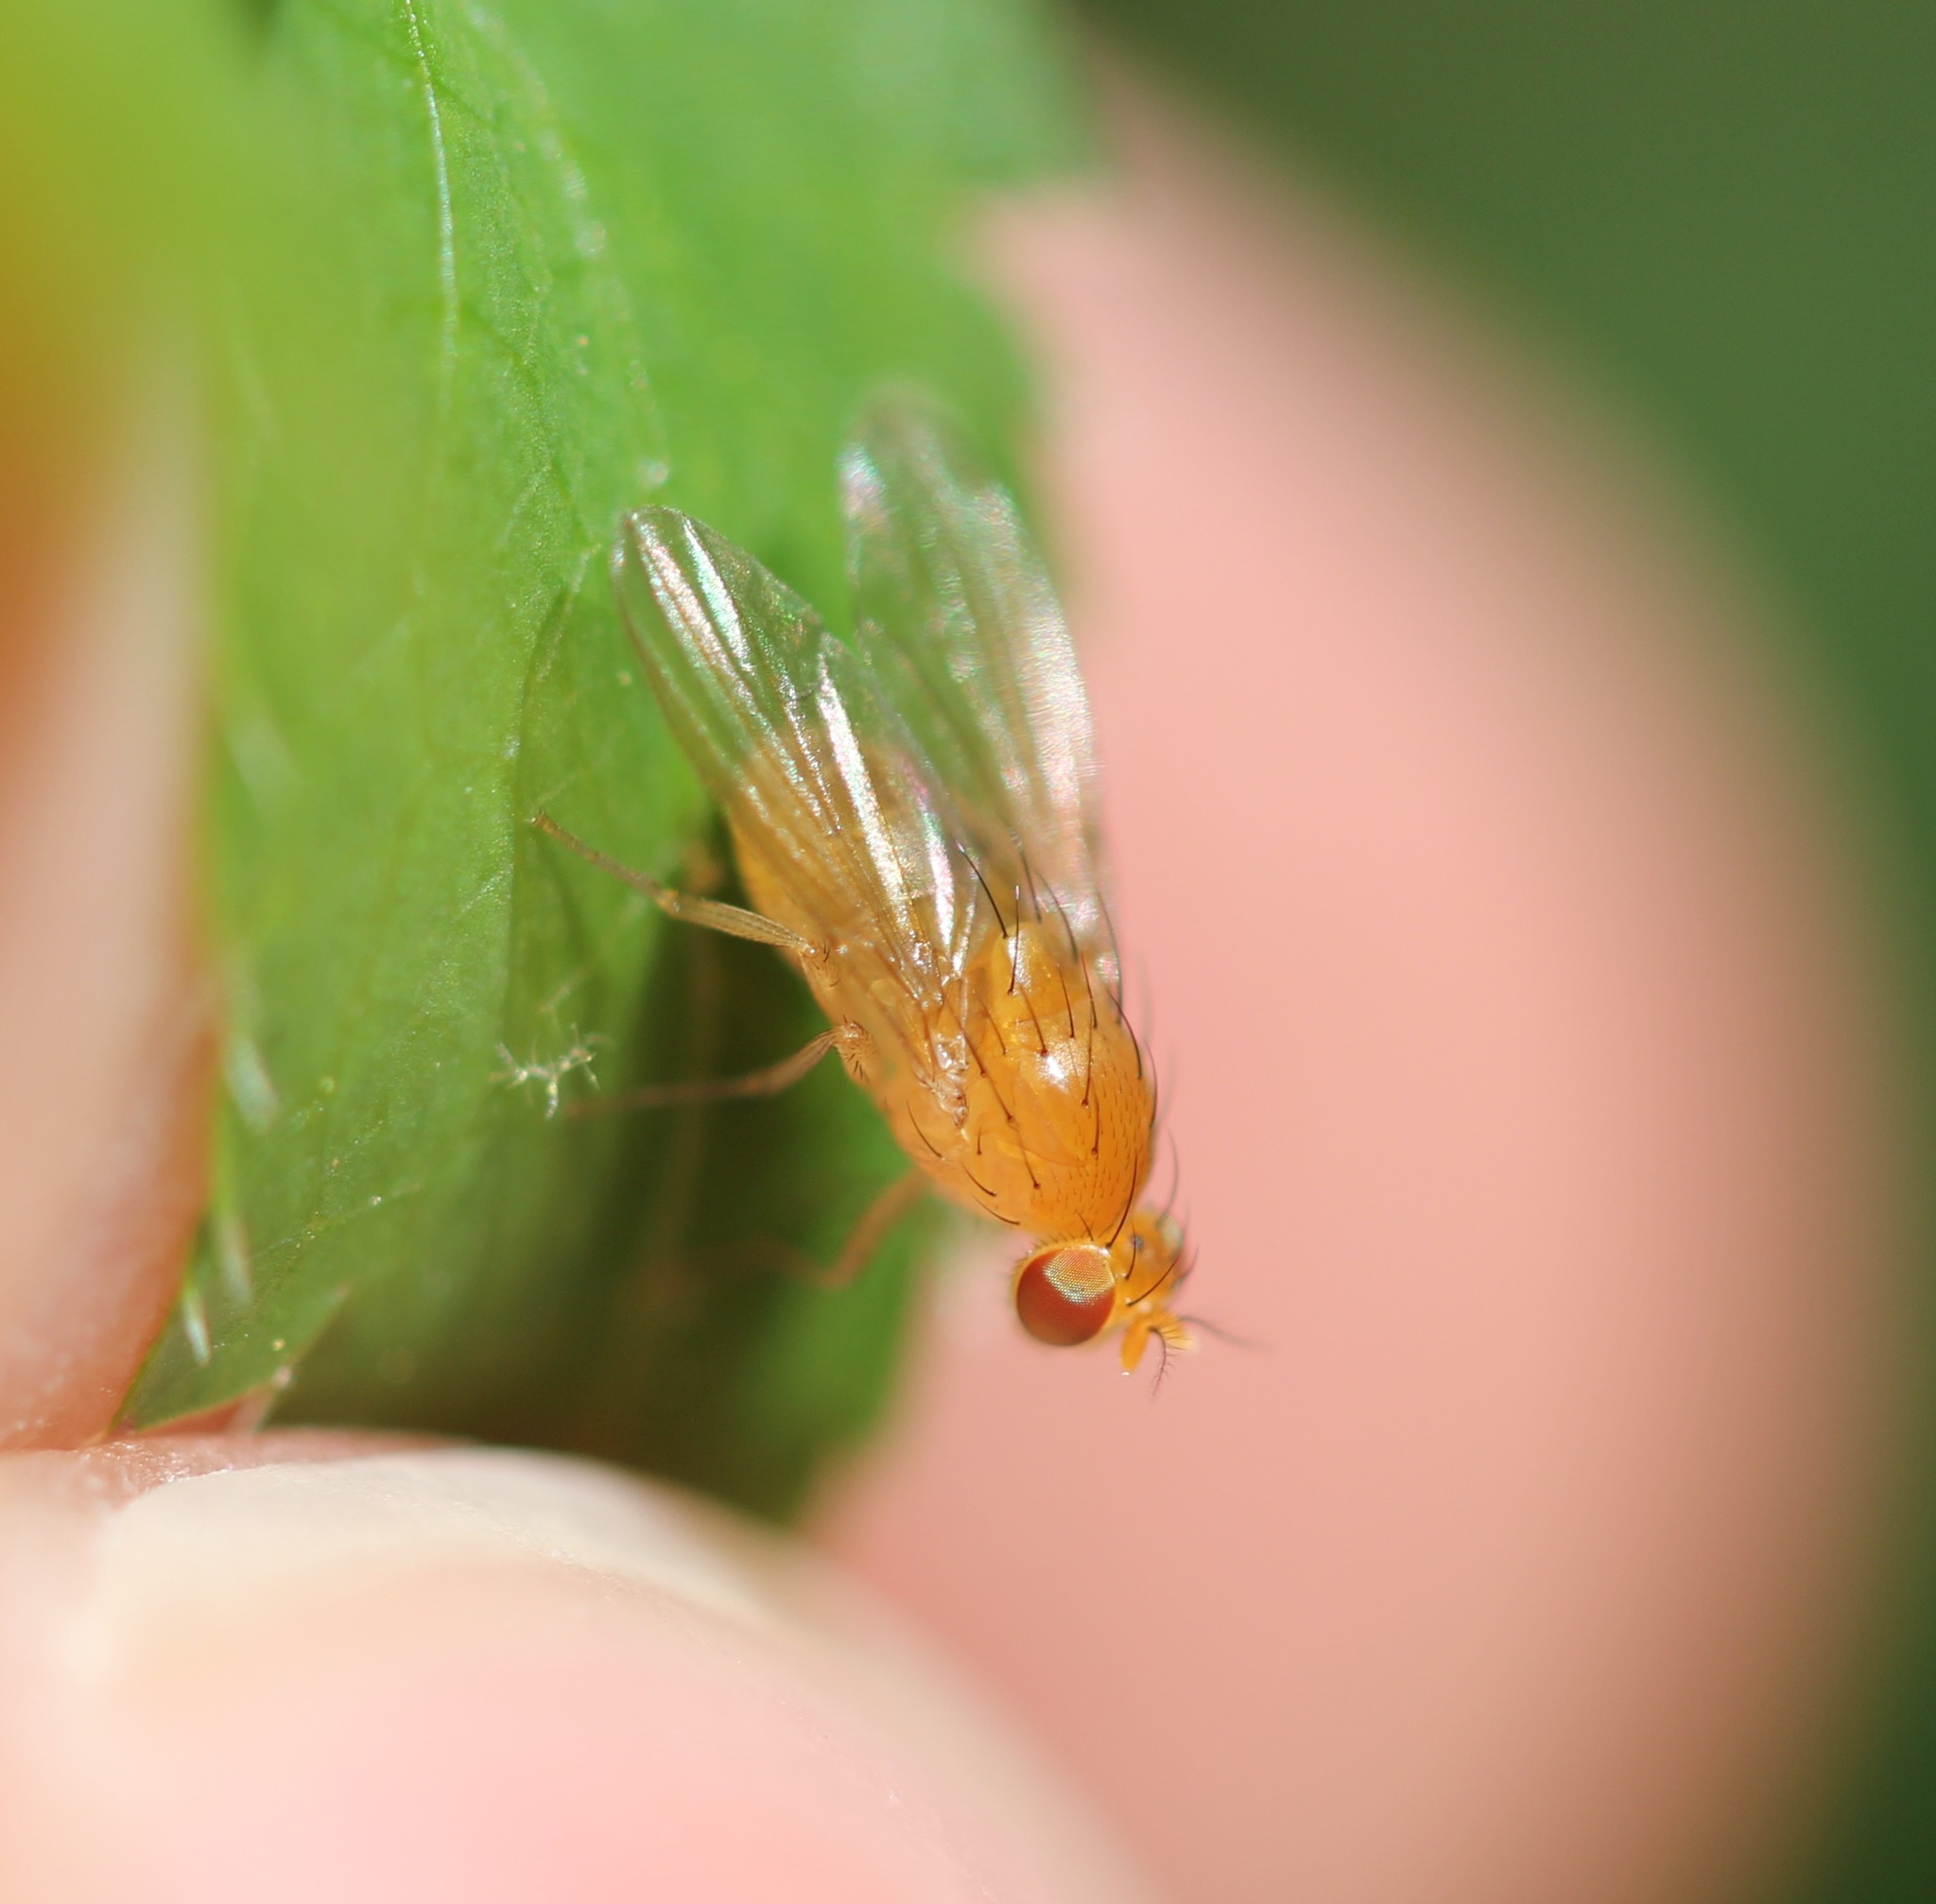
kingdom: Animalia
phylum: Arthropoda
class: Insecta
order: Diptera
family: Lauxaniidae
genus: Neogriphoneura
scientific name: Neogriphoneura sordida
